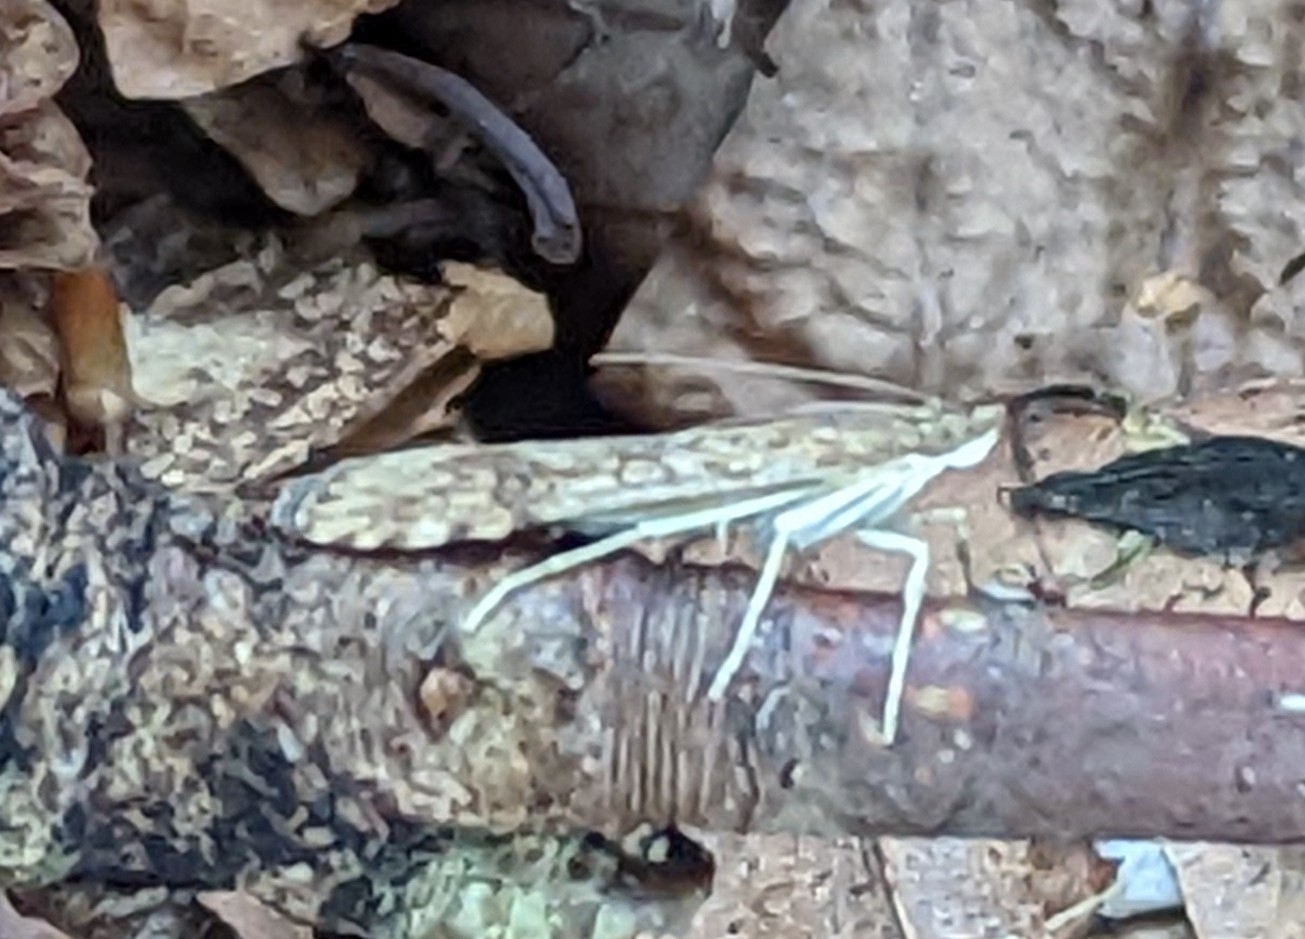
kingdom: Animalia
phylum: Arthropoda
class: Insecta
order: Lepidoptera
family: Crambidae
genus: Nomophila
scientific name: Nomophila noctuella
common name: Rush veneer
